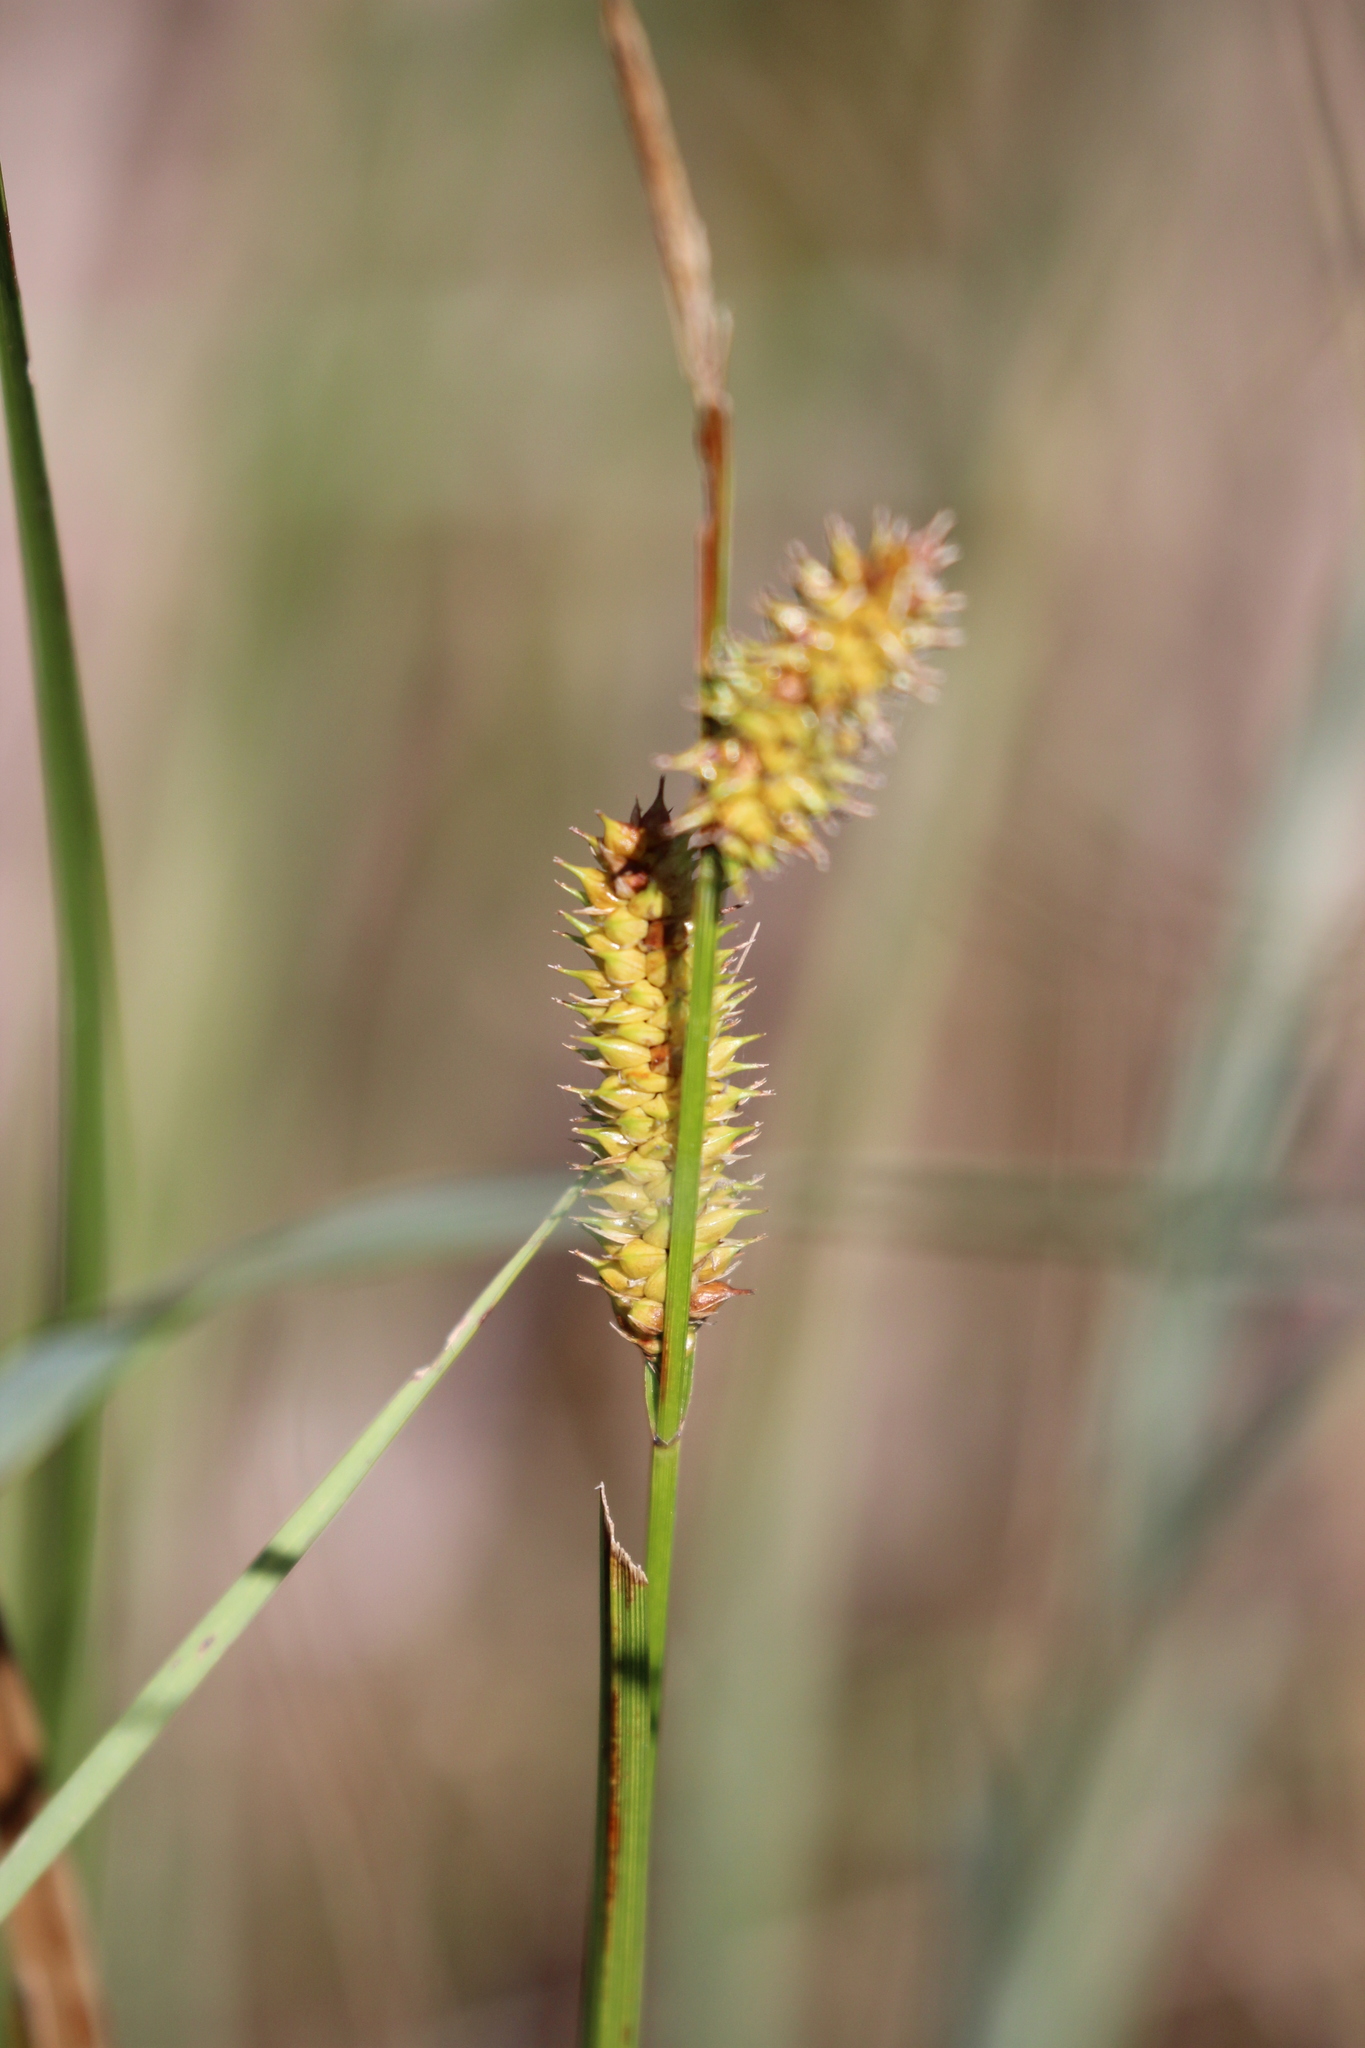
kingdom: Plantae
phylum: Tracheophyta
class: Liliopsida
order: Poales
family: Cyperaceae
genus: Carex
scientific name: Carex utriculata
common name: Beaked sedge
